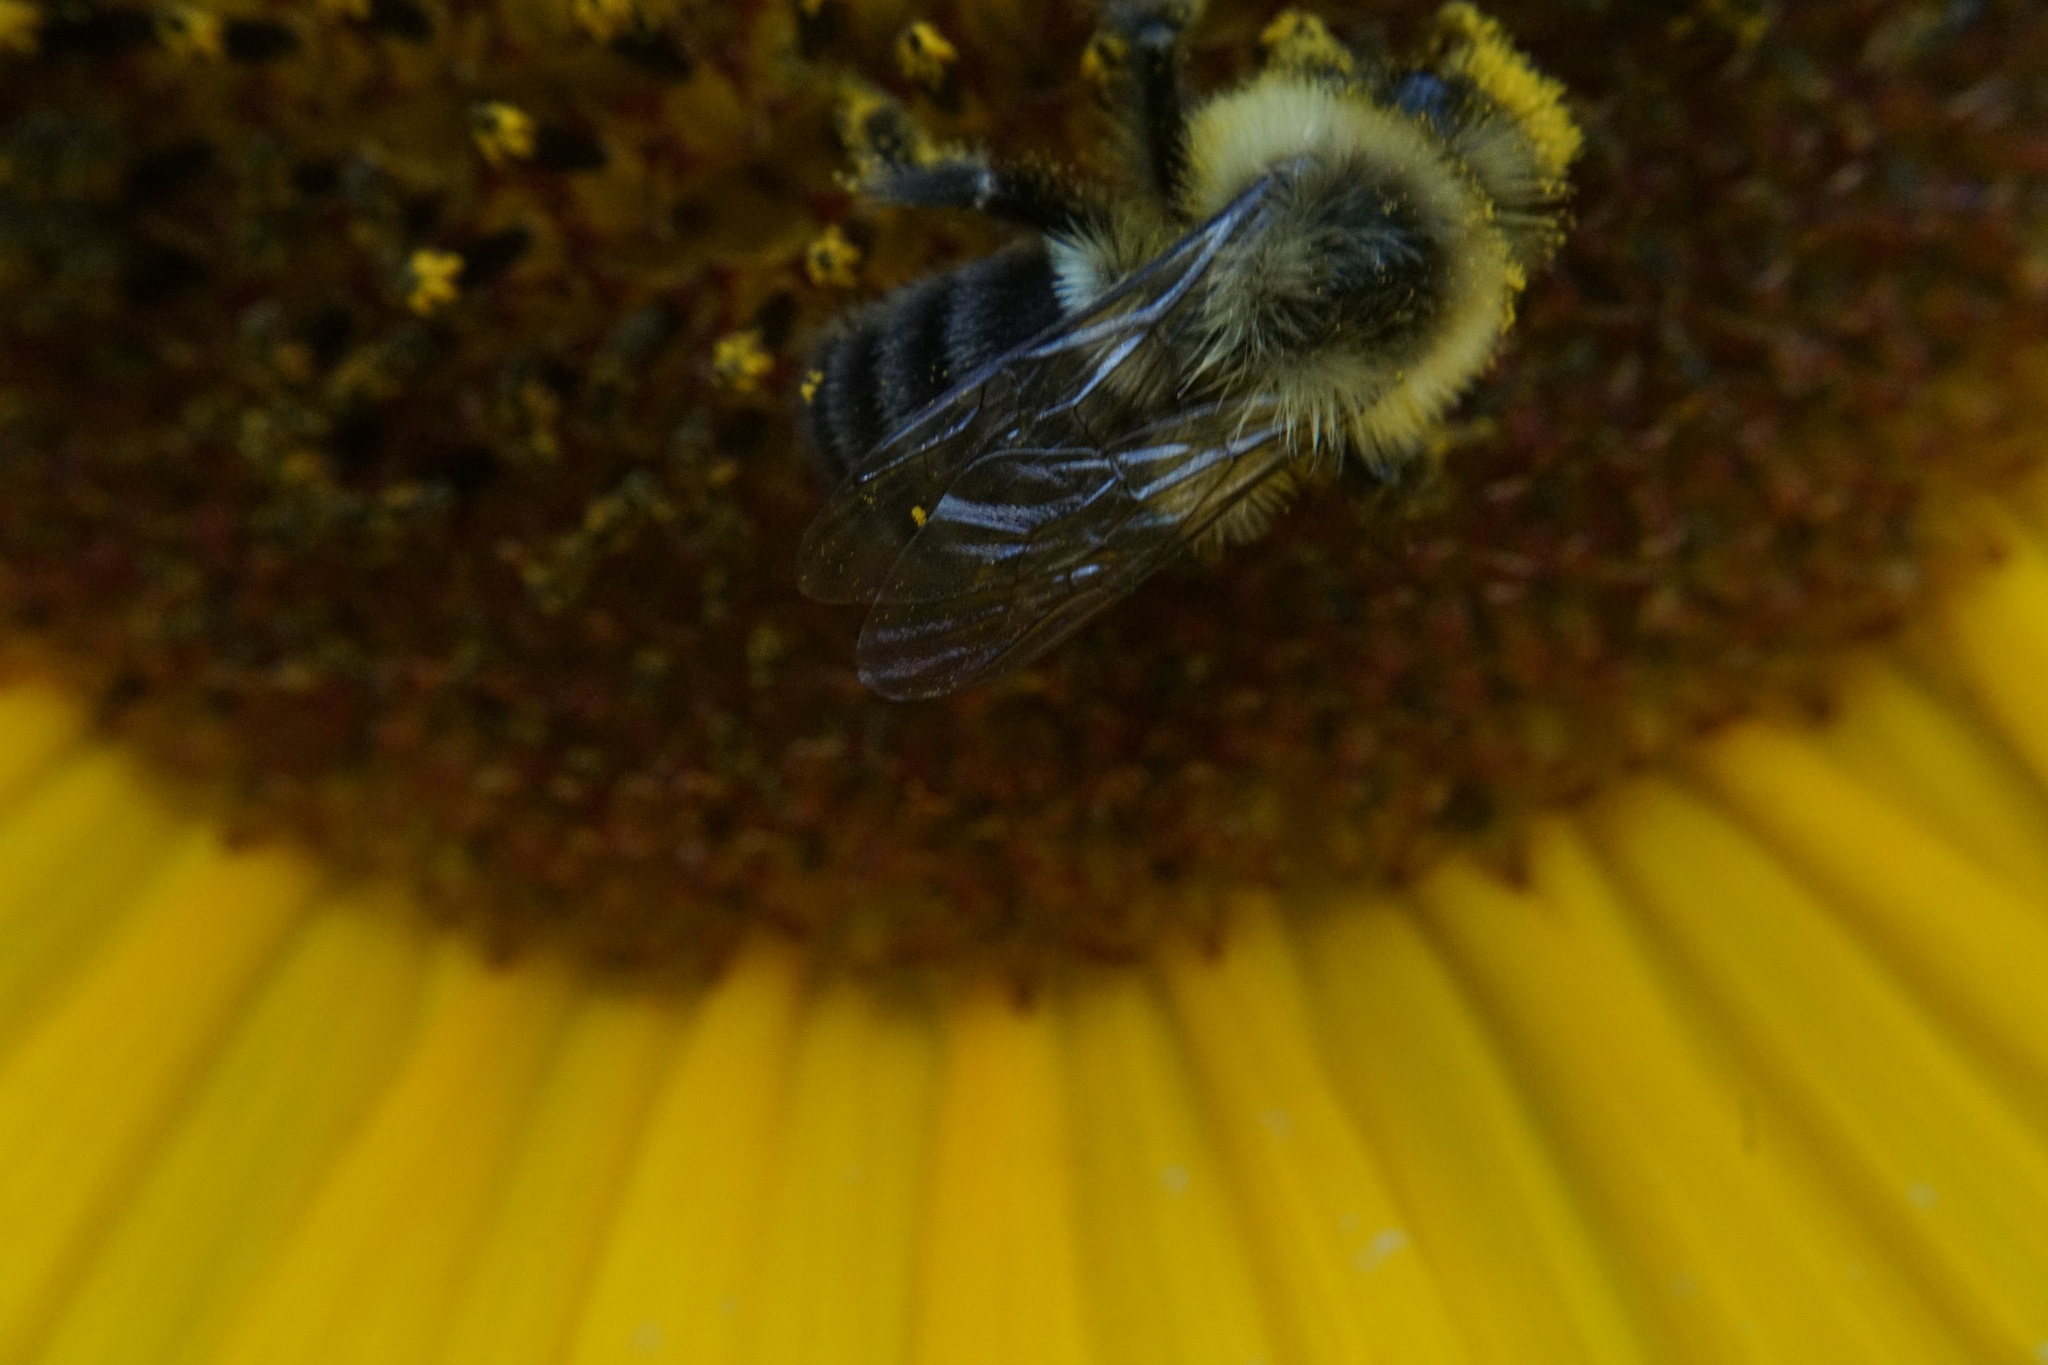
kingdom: Animalia
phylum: Arthropoda
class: Insecta
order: Hymenoptera
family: Apidae
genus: Bombus
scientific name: Bombus impatiens
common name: Common eastern bumble bee
